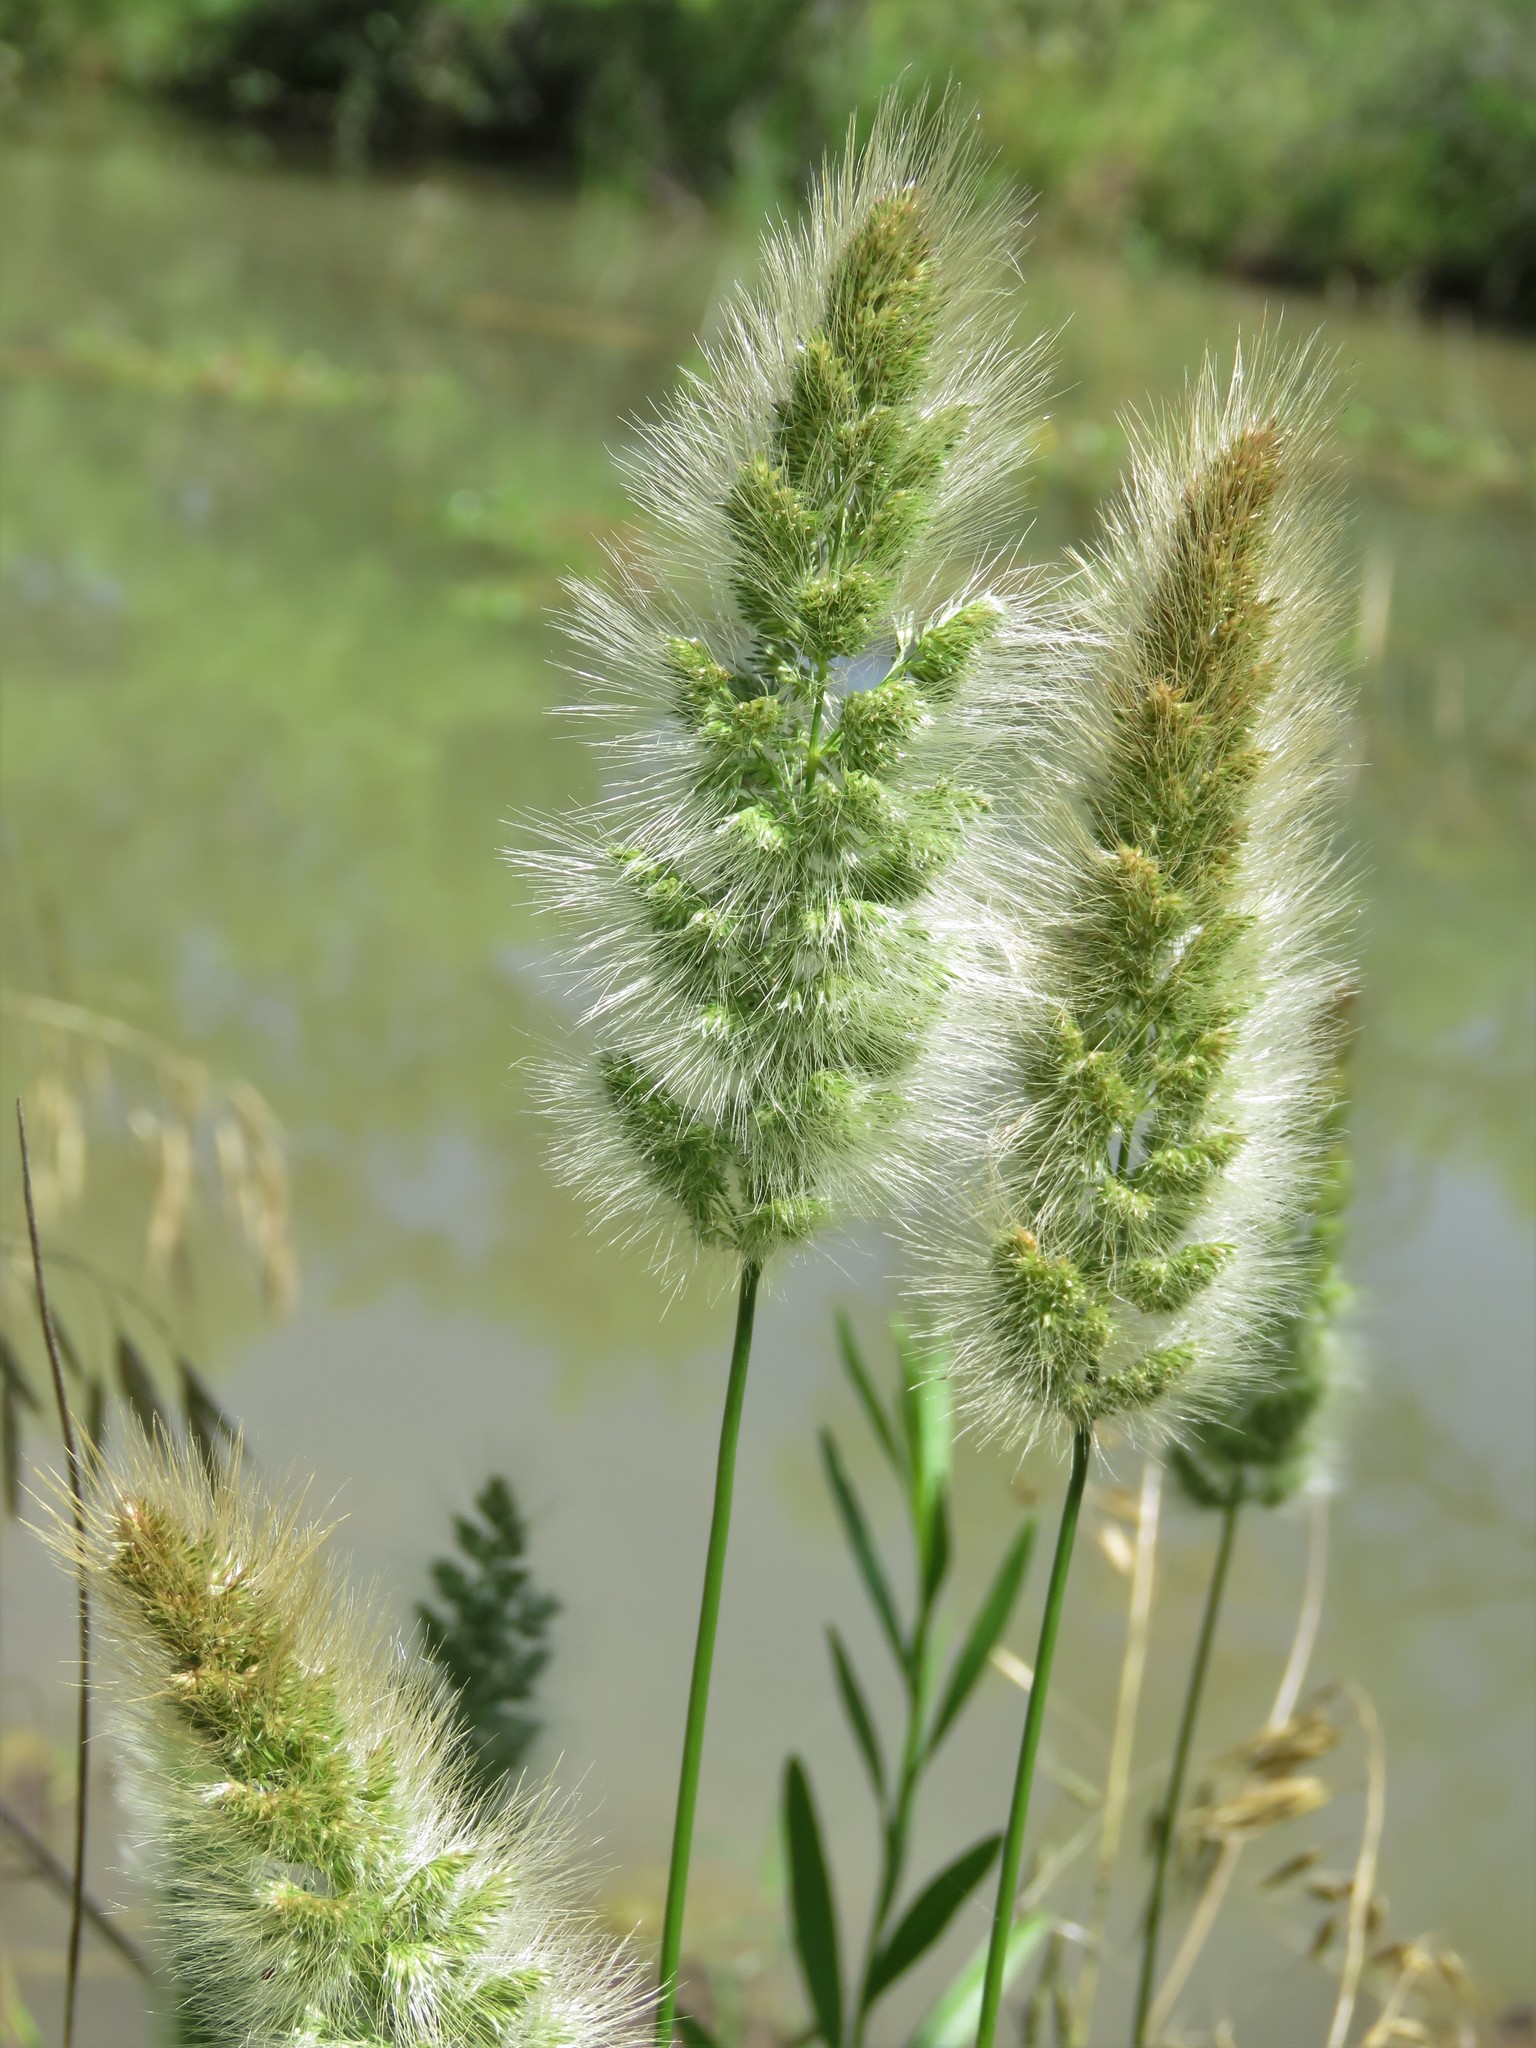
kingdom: Plantae
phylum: Tracheophyta
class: Liliopsida
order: Poales
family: Poaceae
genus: Polypogon
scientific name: Polypogon monspeliensis
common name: Annual rabbitsfoot grass
